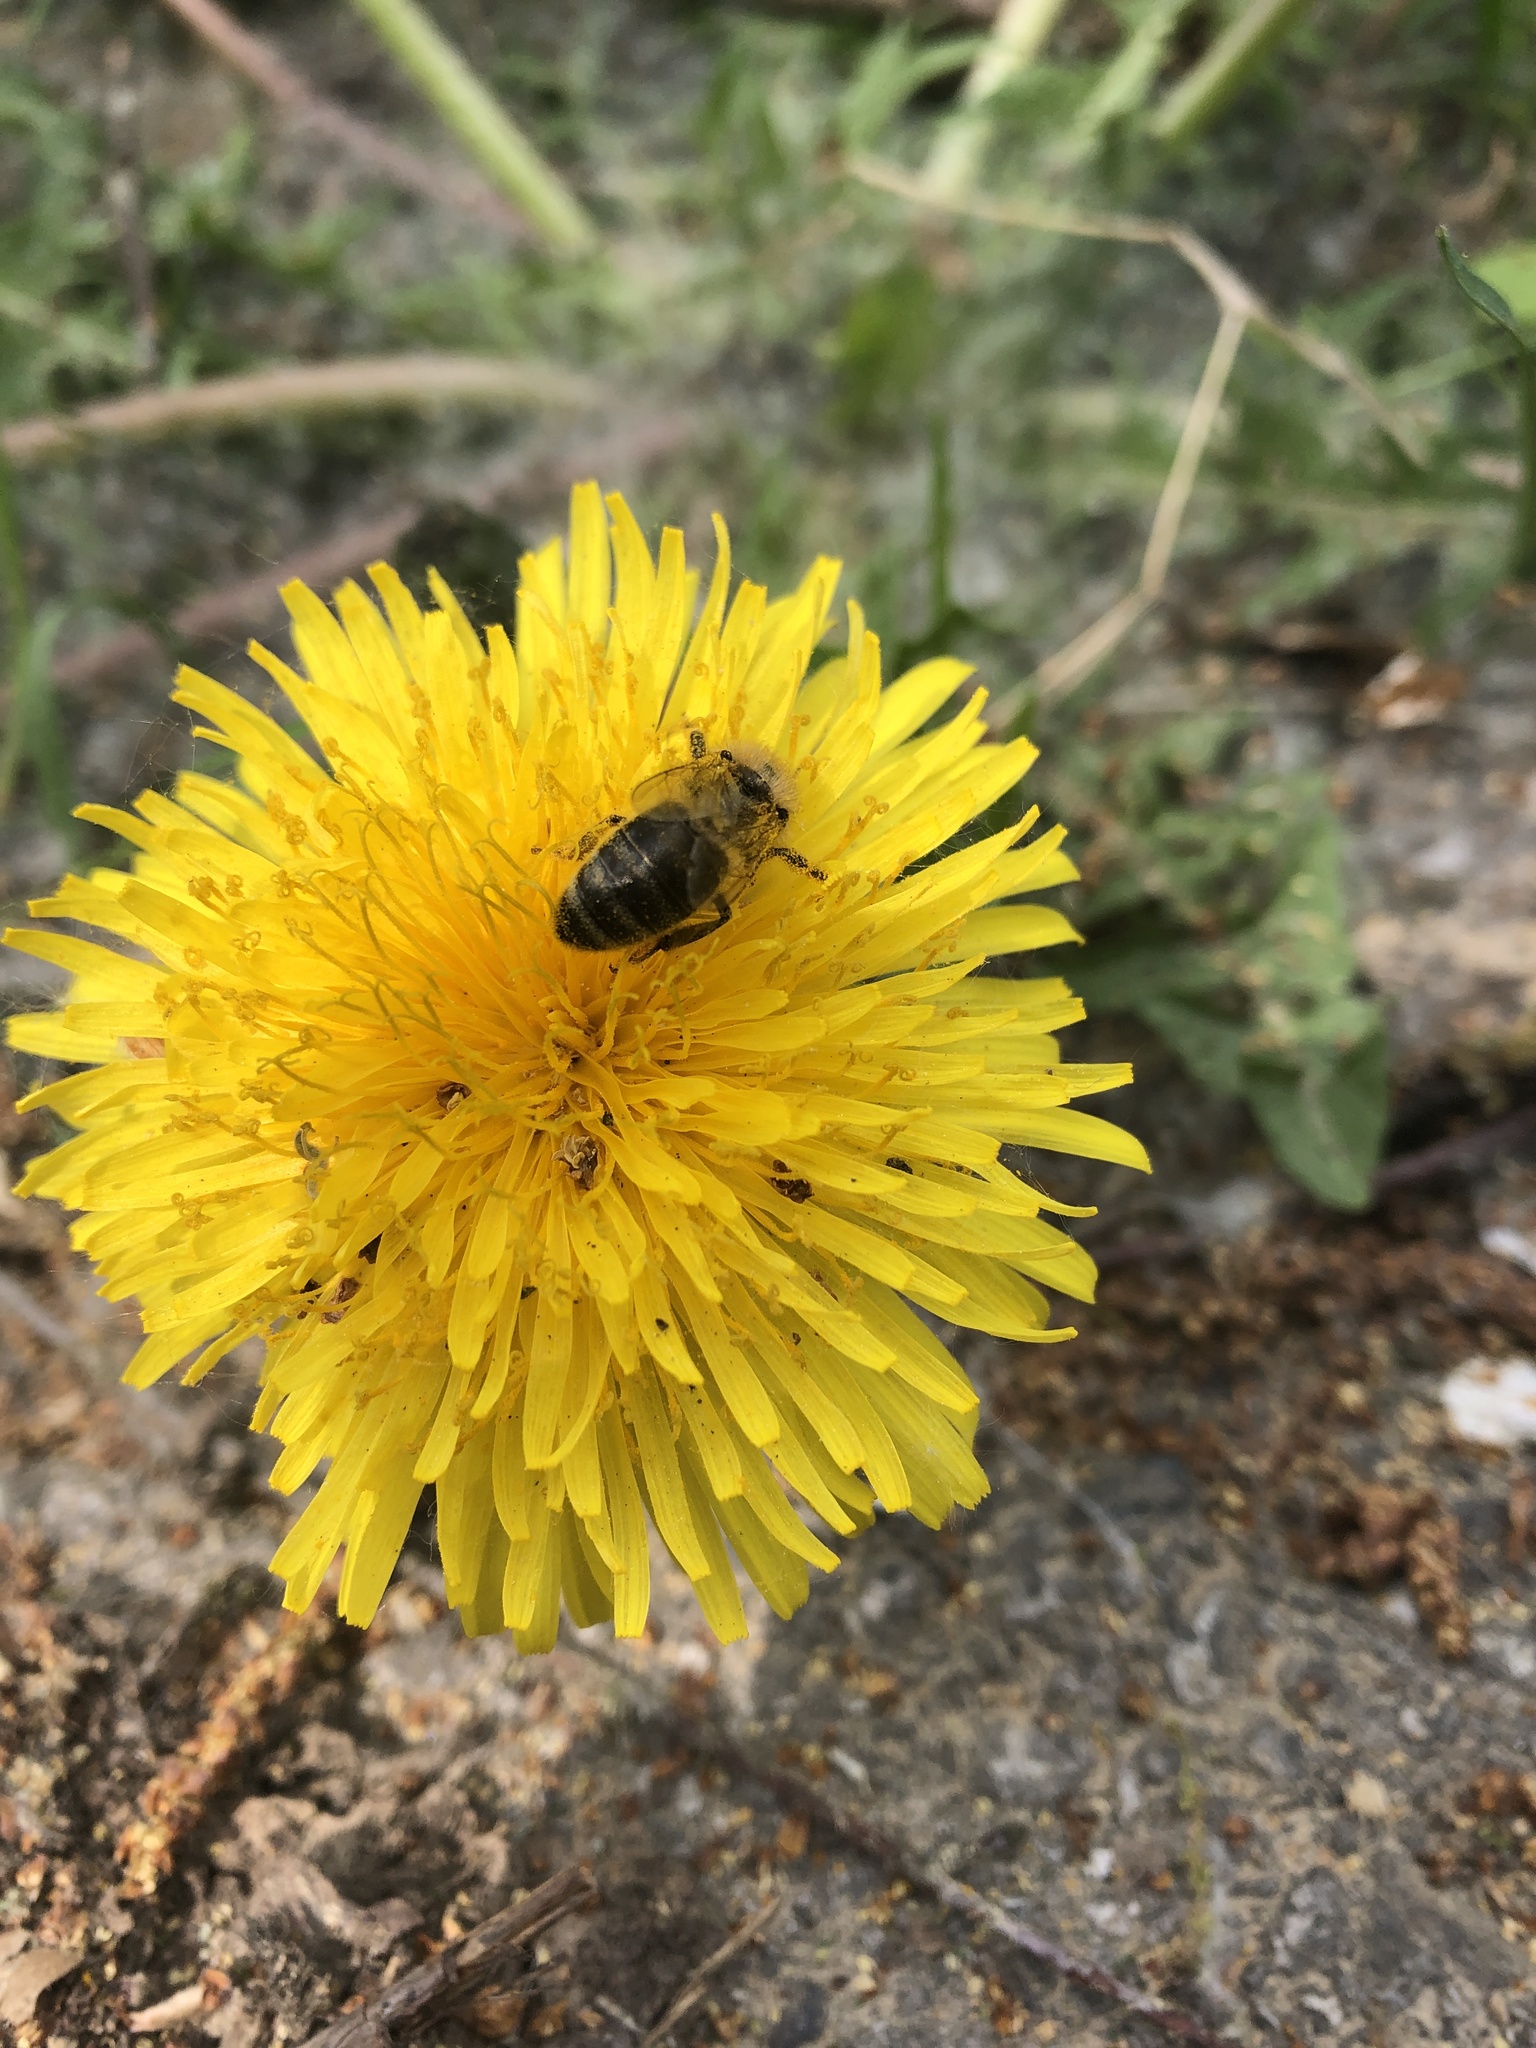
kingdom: Animalia
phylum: Arthropoda
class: Insecta
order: Hymenoptera
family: Apidae
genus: Apis
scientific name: Apis mellifera
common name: Honey bee
